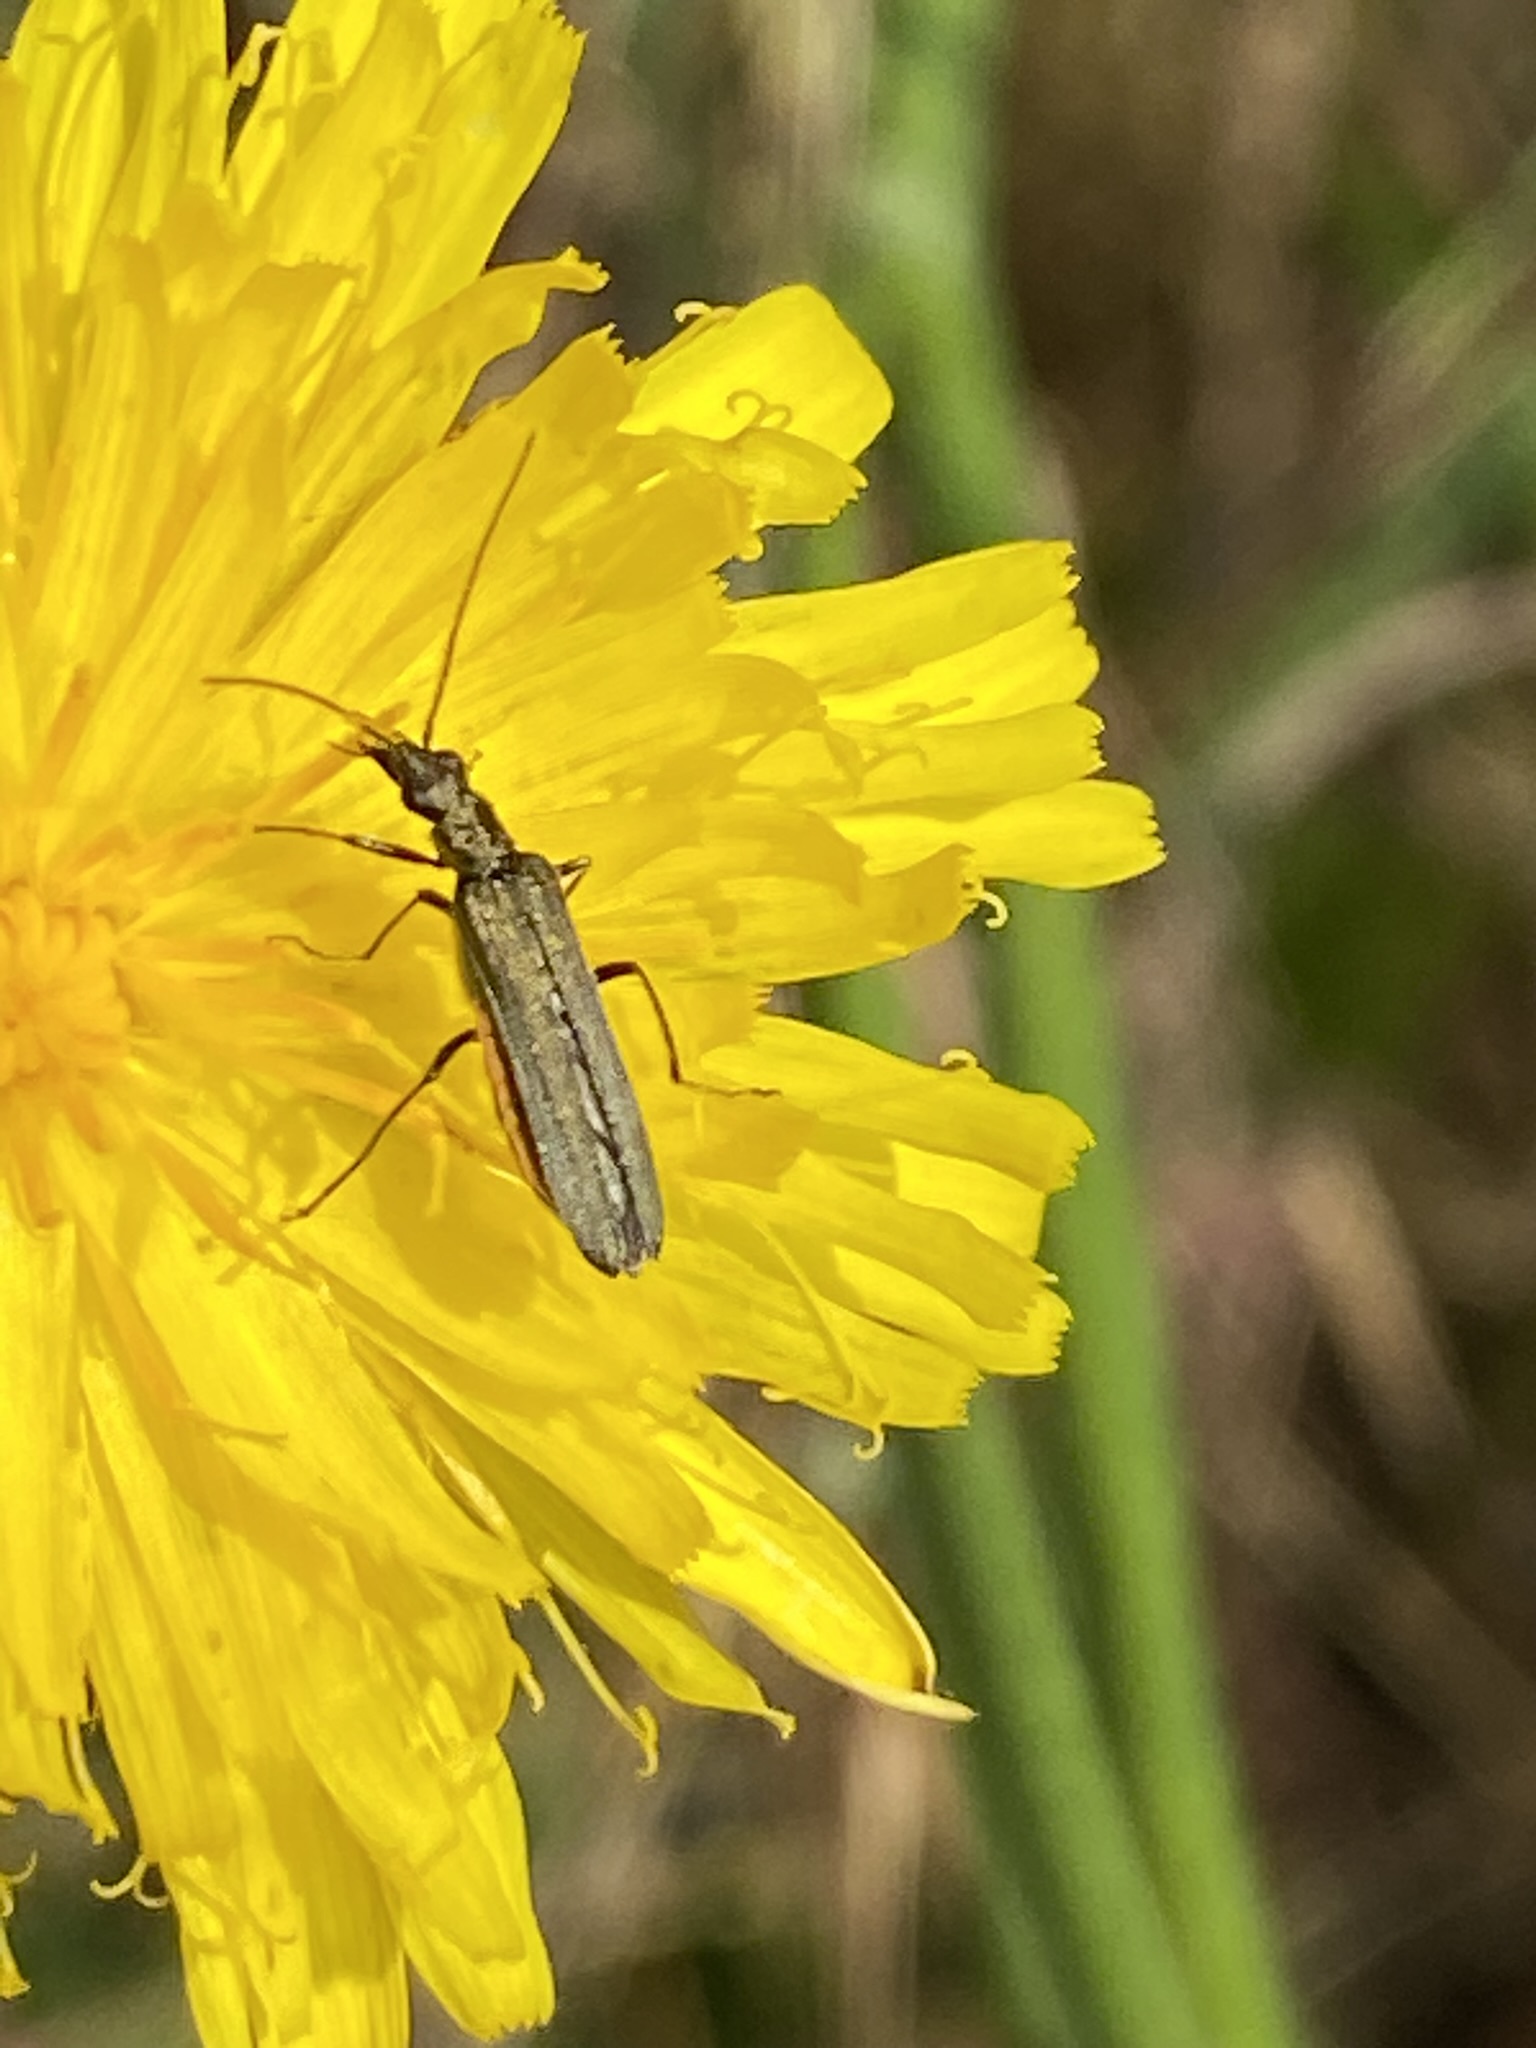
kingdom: Animalia
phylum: Arthropoda
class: Insecta
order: Coleoptera
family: Oedemeridae
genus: Oedemera
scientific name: Oedemera lurida
